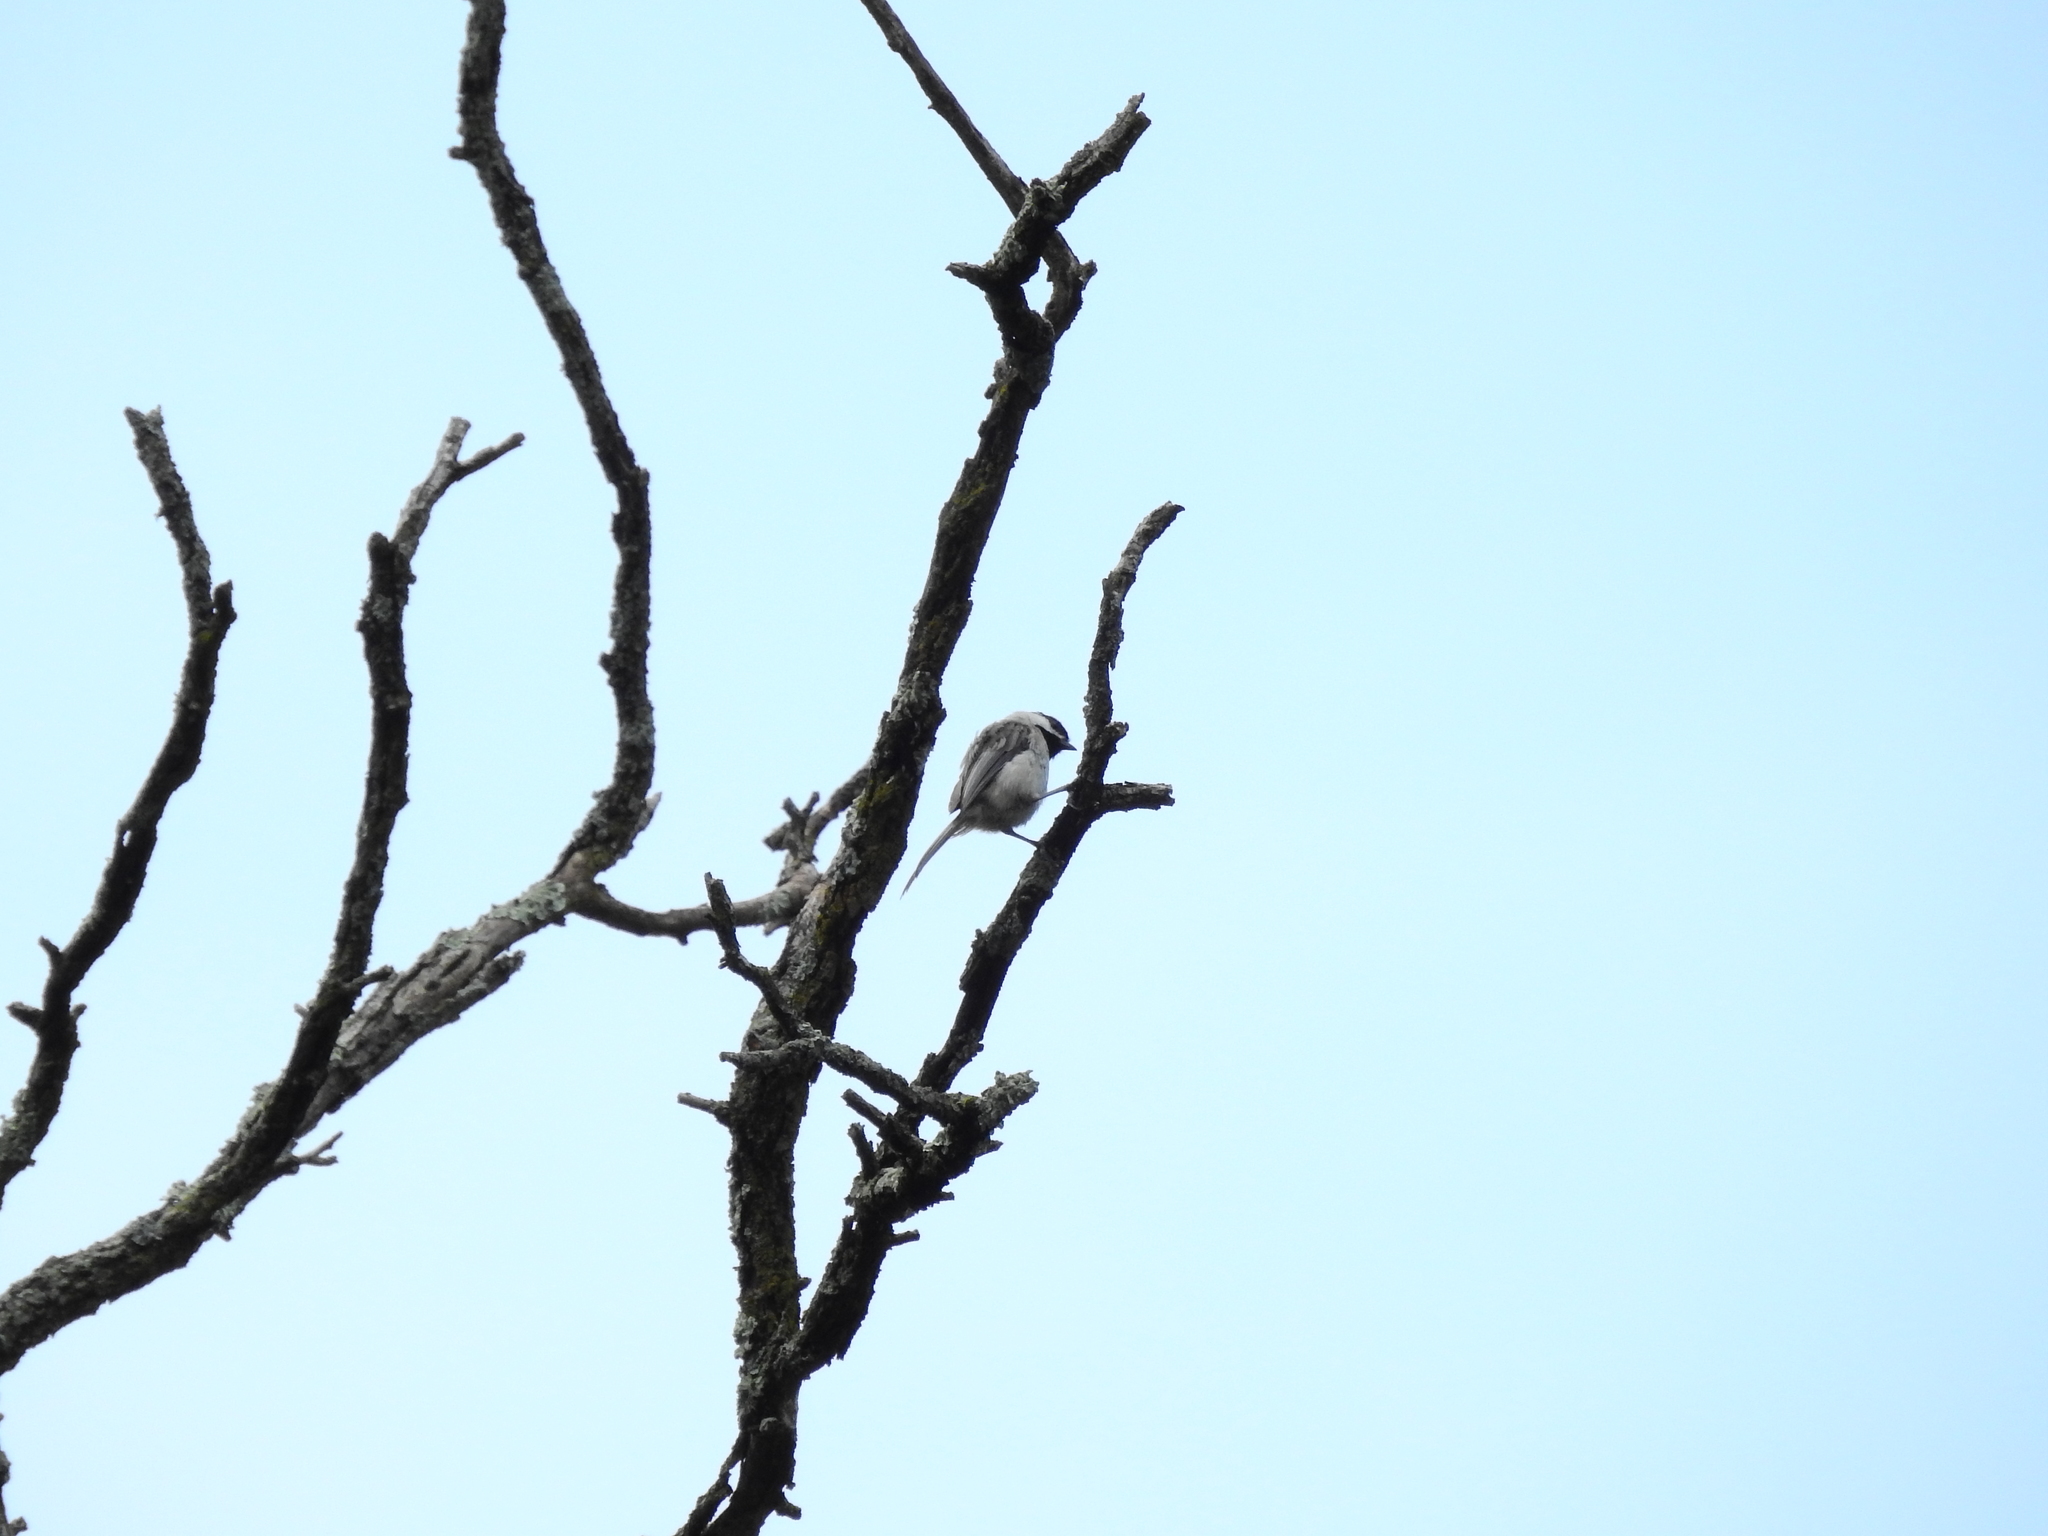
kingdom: Animalia
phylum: Chordata
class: Aves
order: Passeriformes
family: Paridae
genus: Poecile
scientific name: Poecile carolinensis
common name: Carolina chickadee
